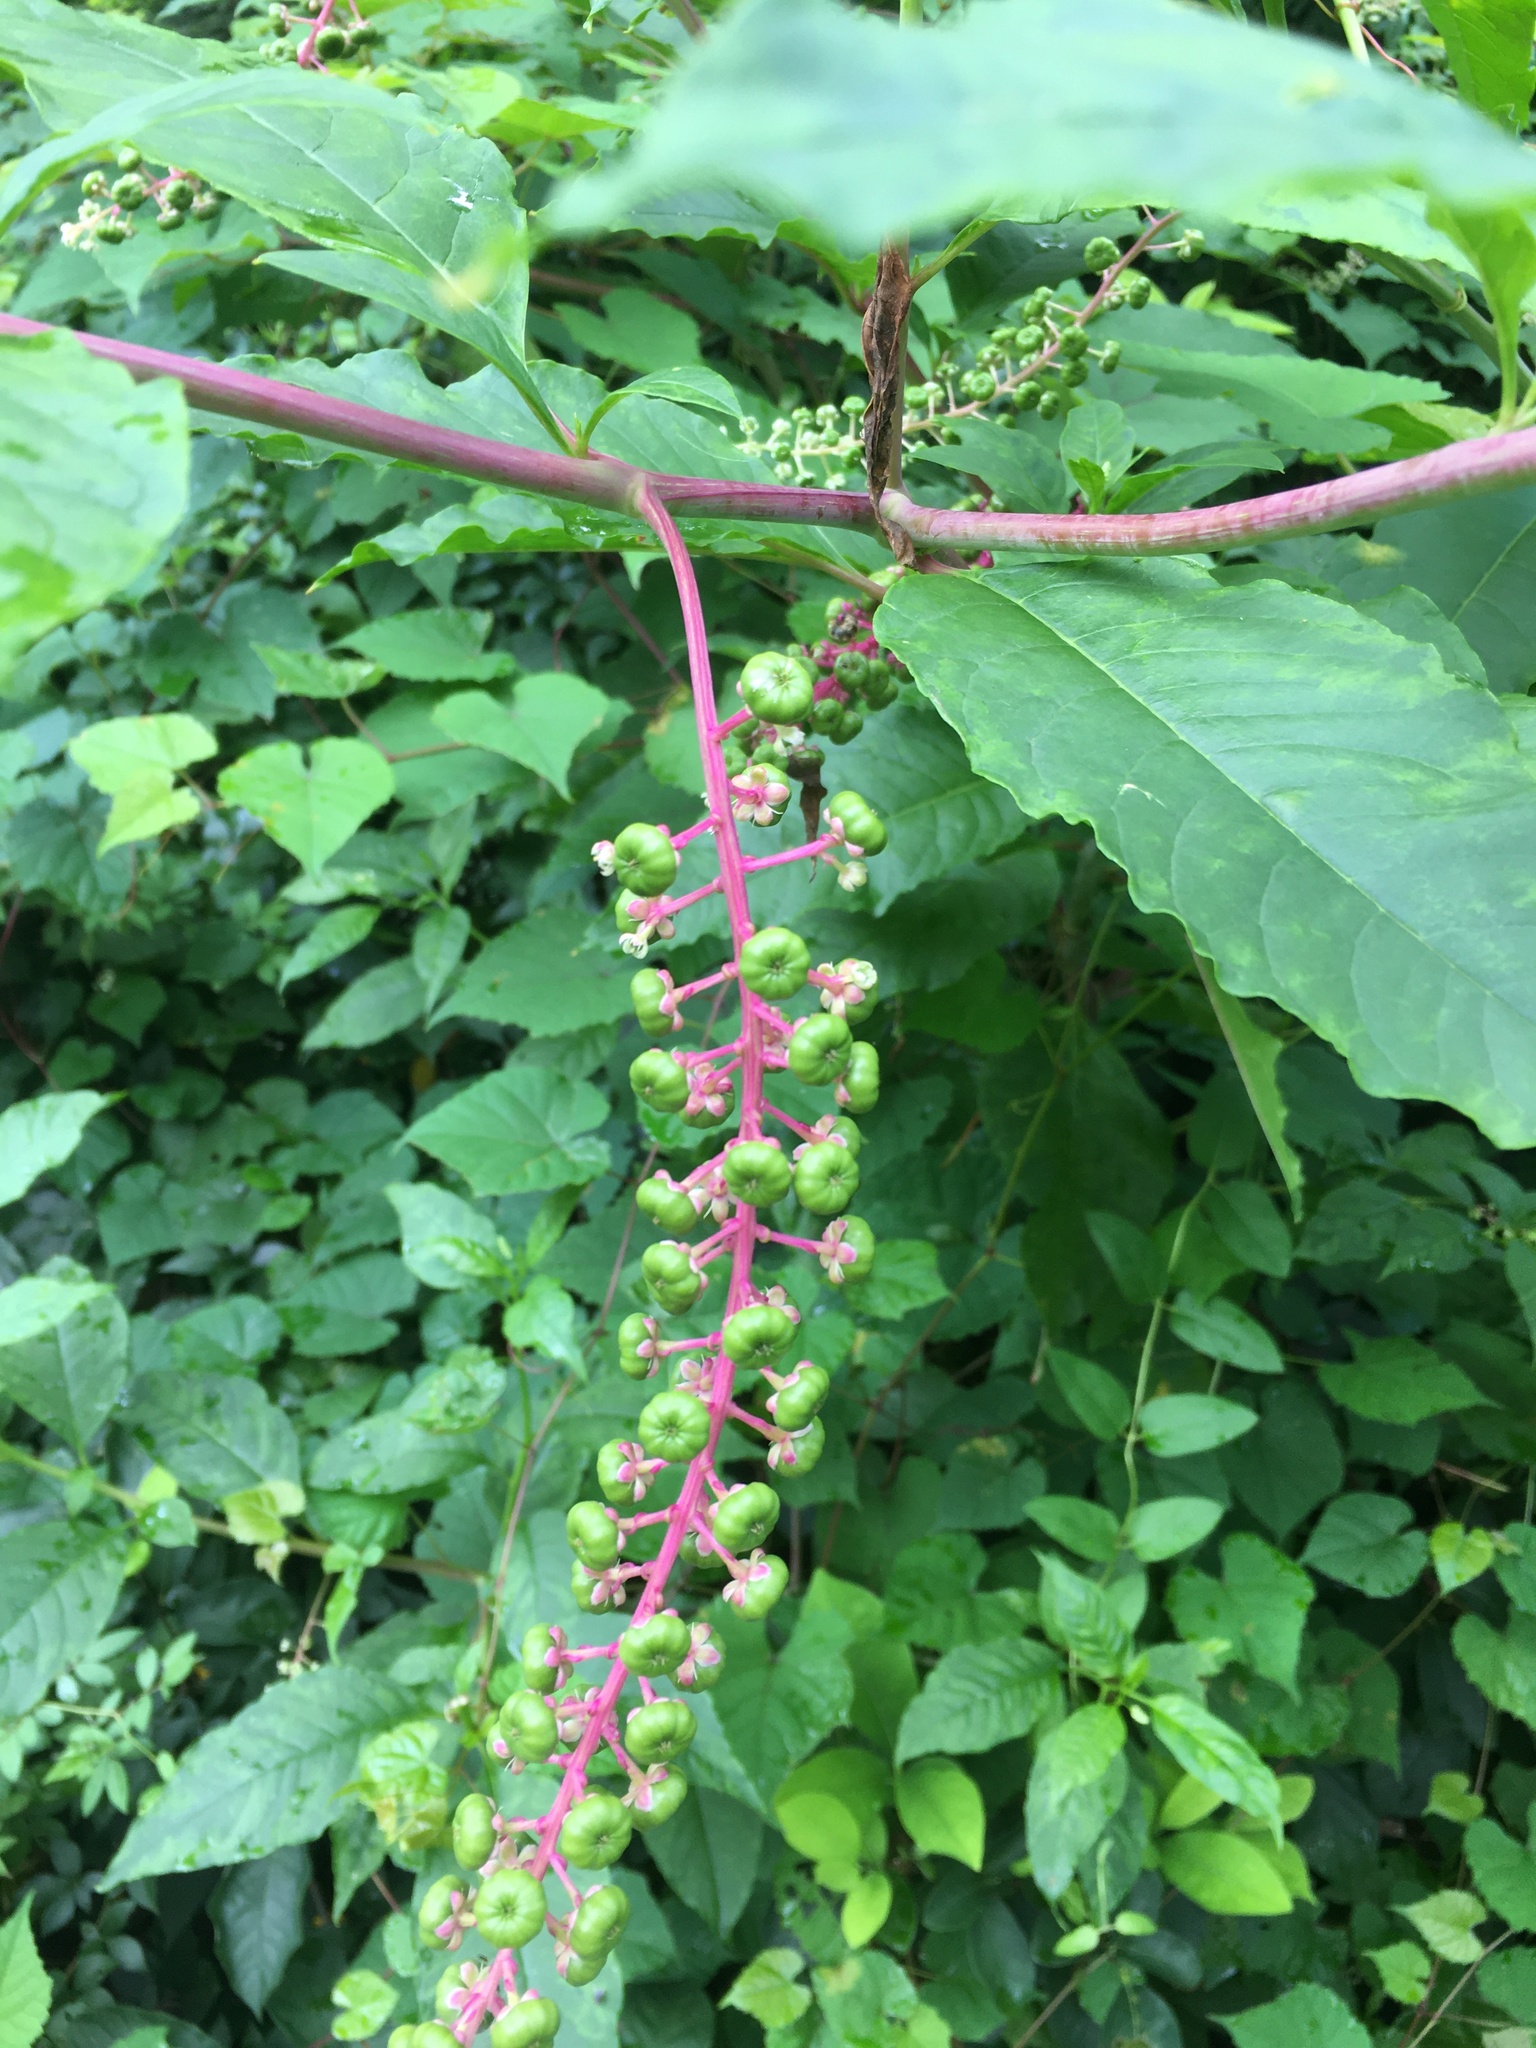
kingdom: Plantae
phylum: Tracheophyta
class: Magnoliopsida
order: Caryophyllales
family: Phytolaccaceae
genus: Phytolacca
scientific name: Phytolacca americana
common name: American pokeweed
